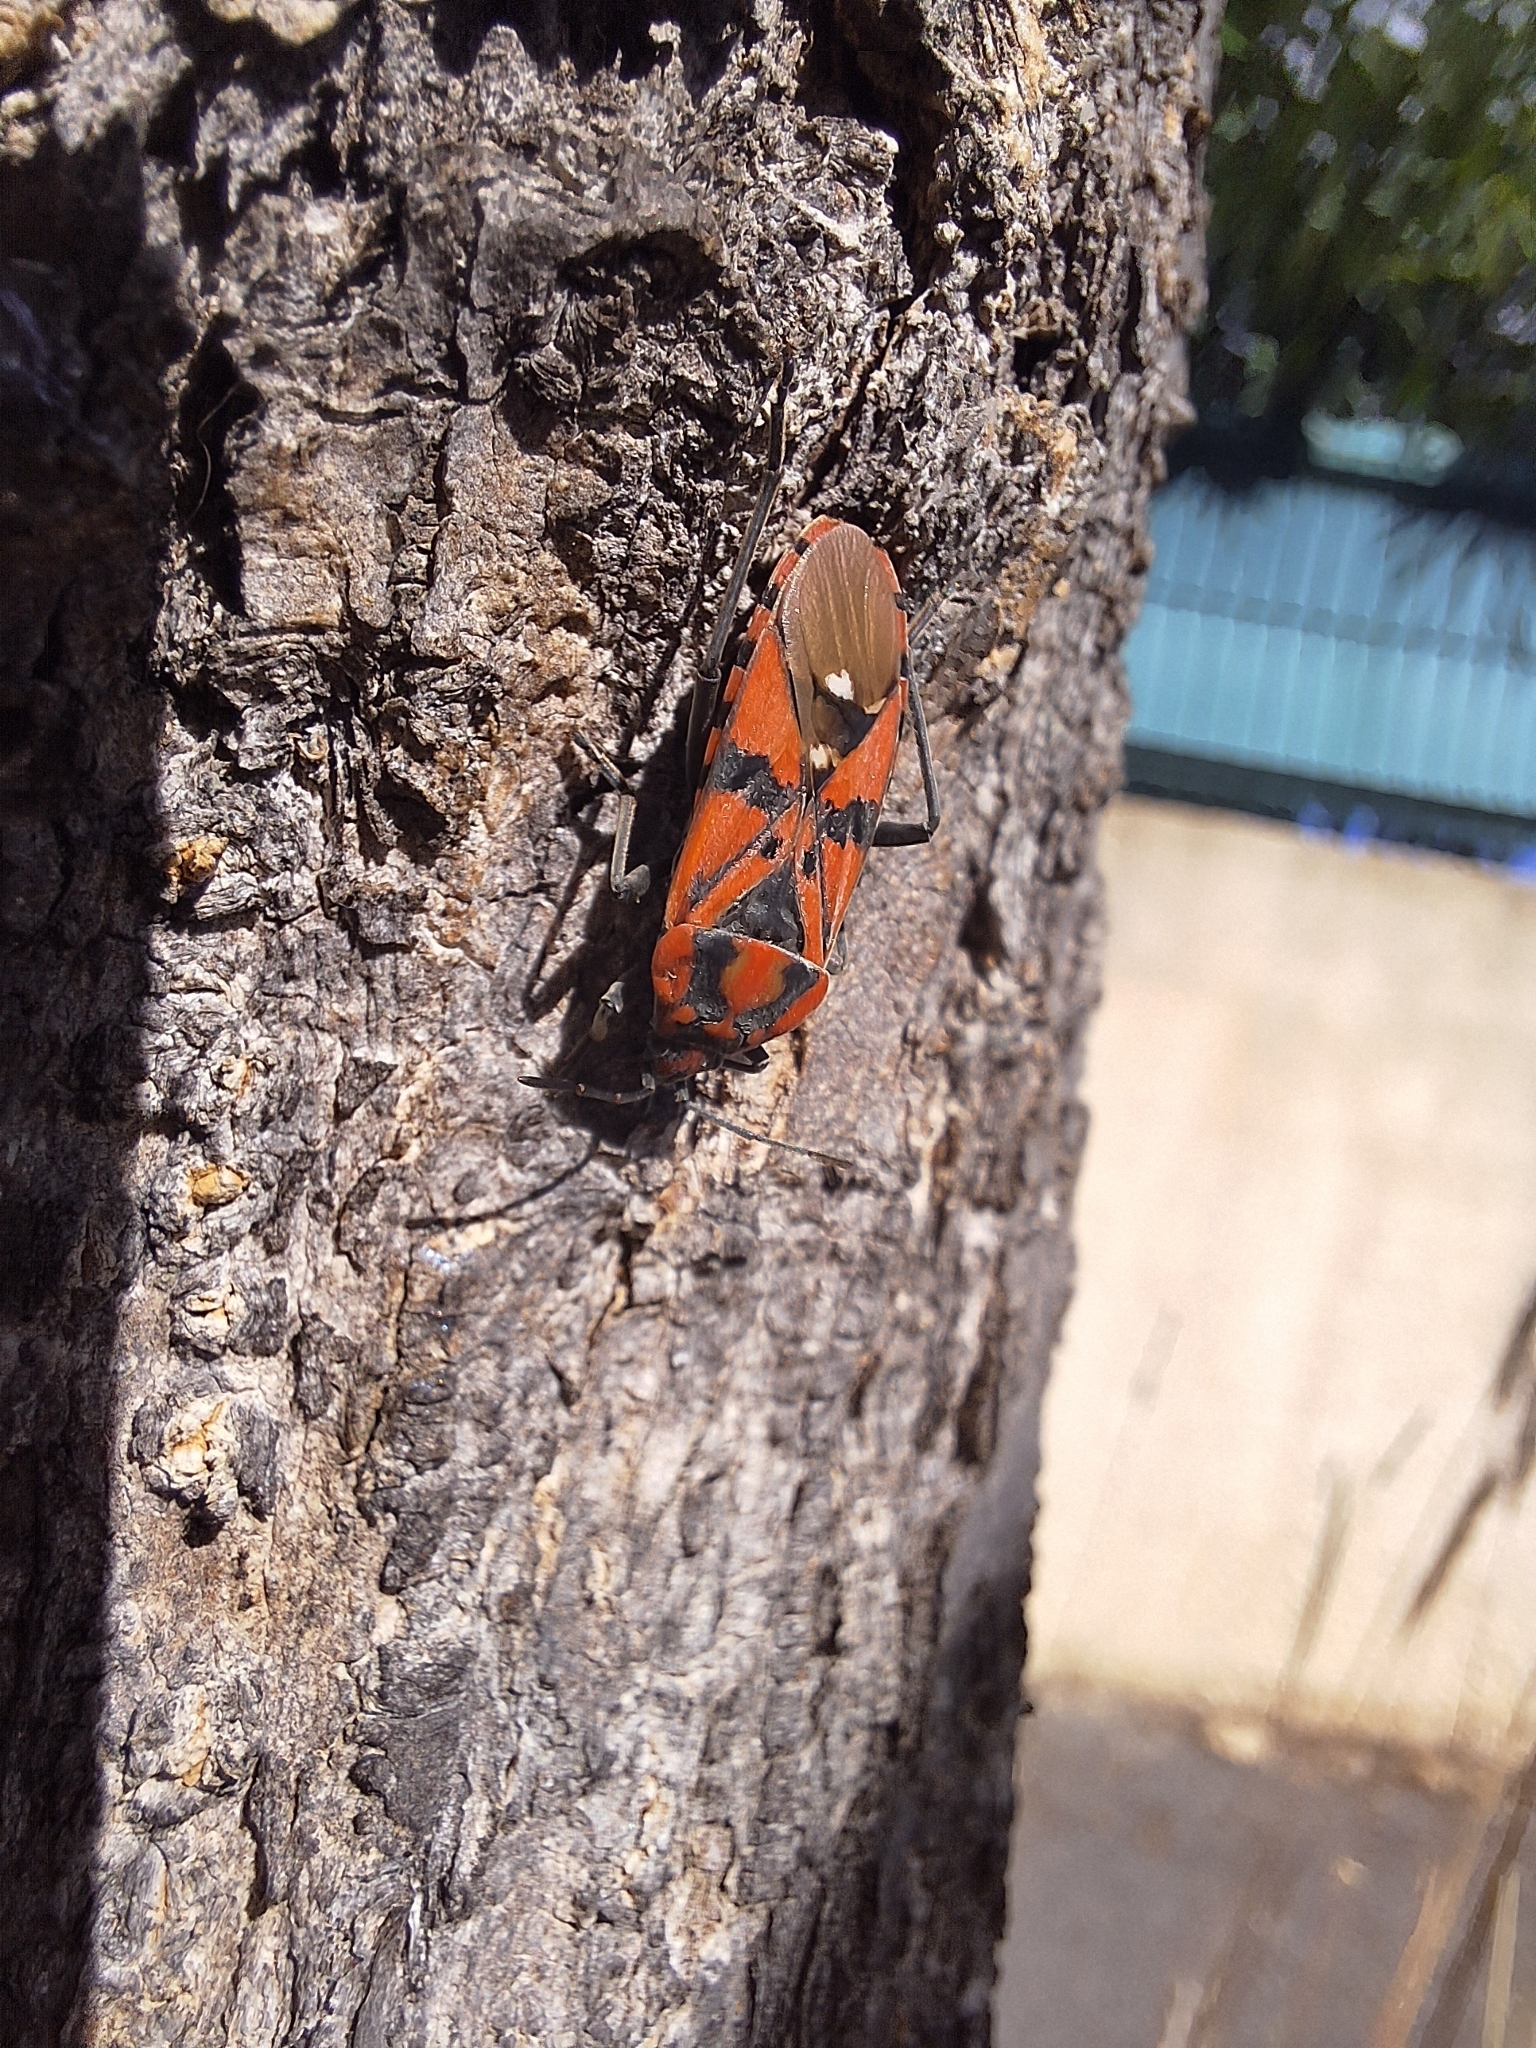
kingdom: Animalia
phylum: Arthropoda
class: Insecta
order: Hemiptera
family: Lygaeidae
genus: Spilostethus
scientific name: Spilostethus pandurus
